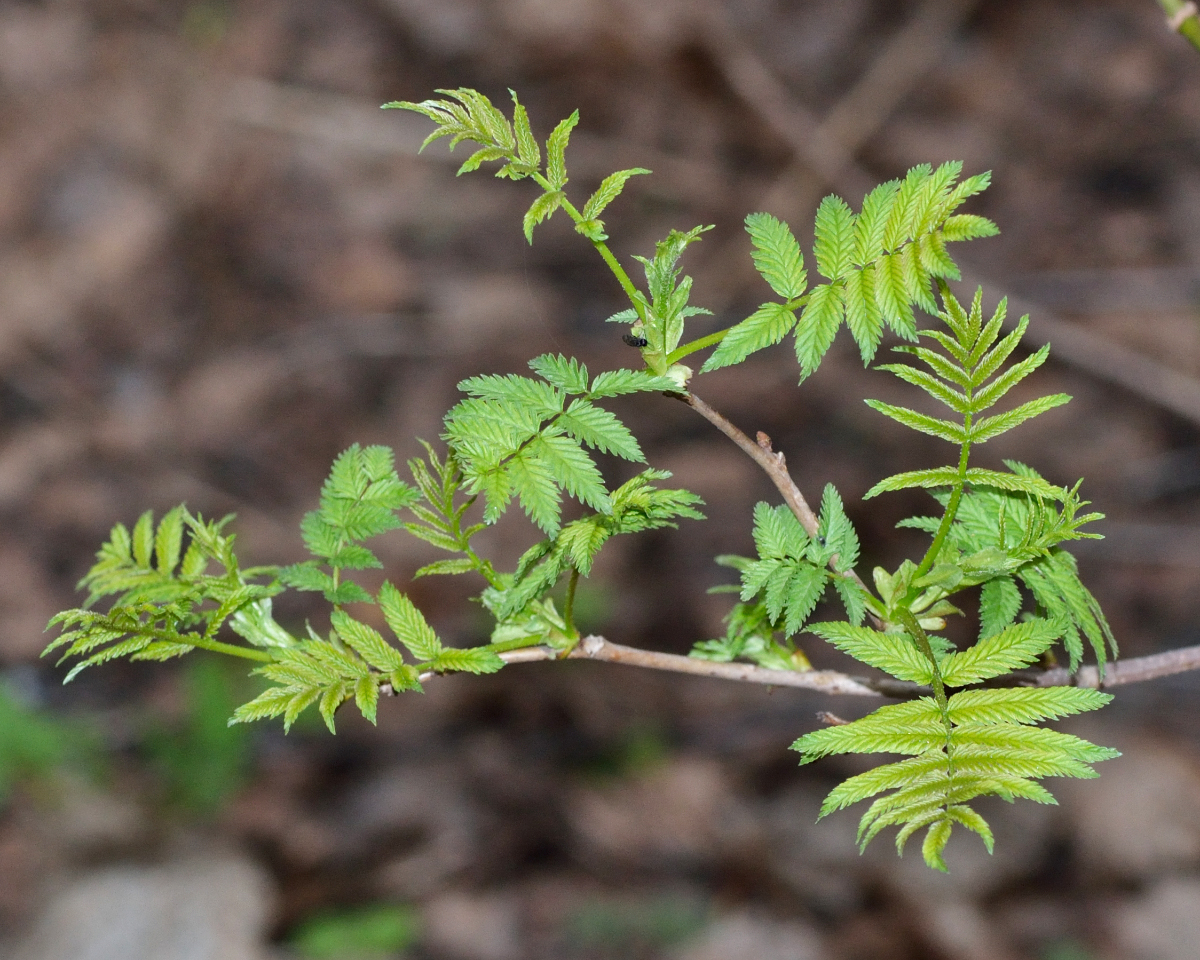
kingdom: Plantae
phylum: Tracheophyta
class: Magnoliopsida
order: Rosales
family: Rosaceae
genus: Sorbaria
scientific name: Sorbaria sorbifolia
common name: False spiraea
